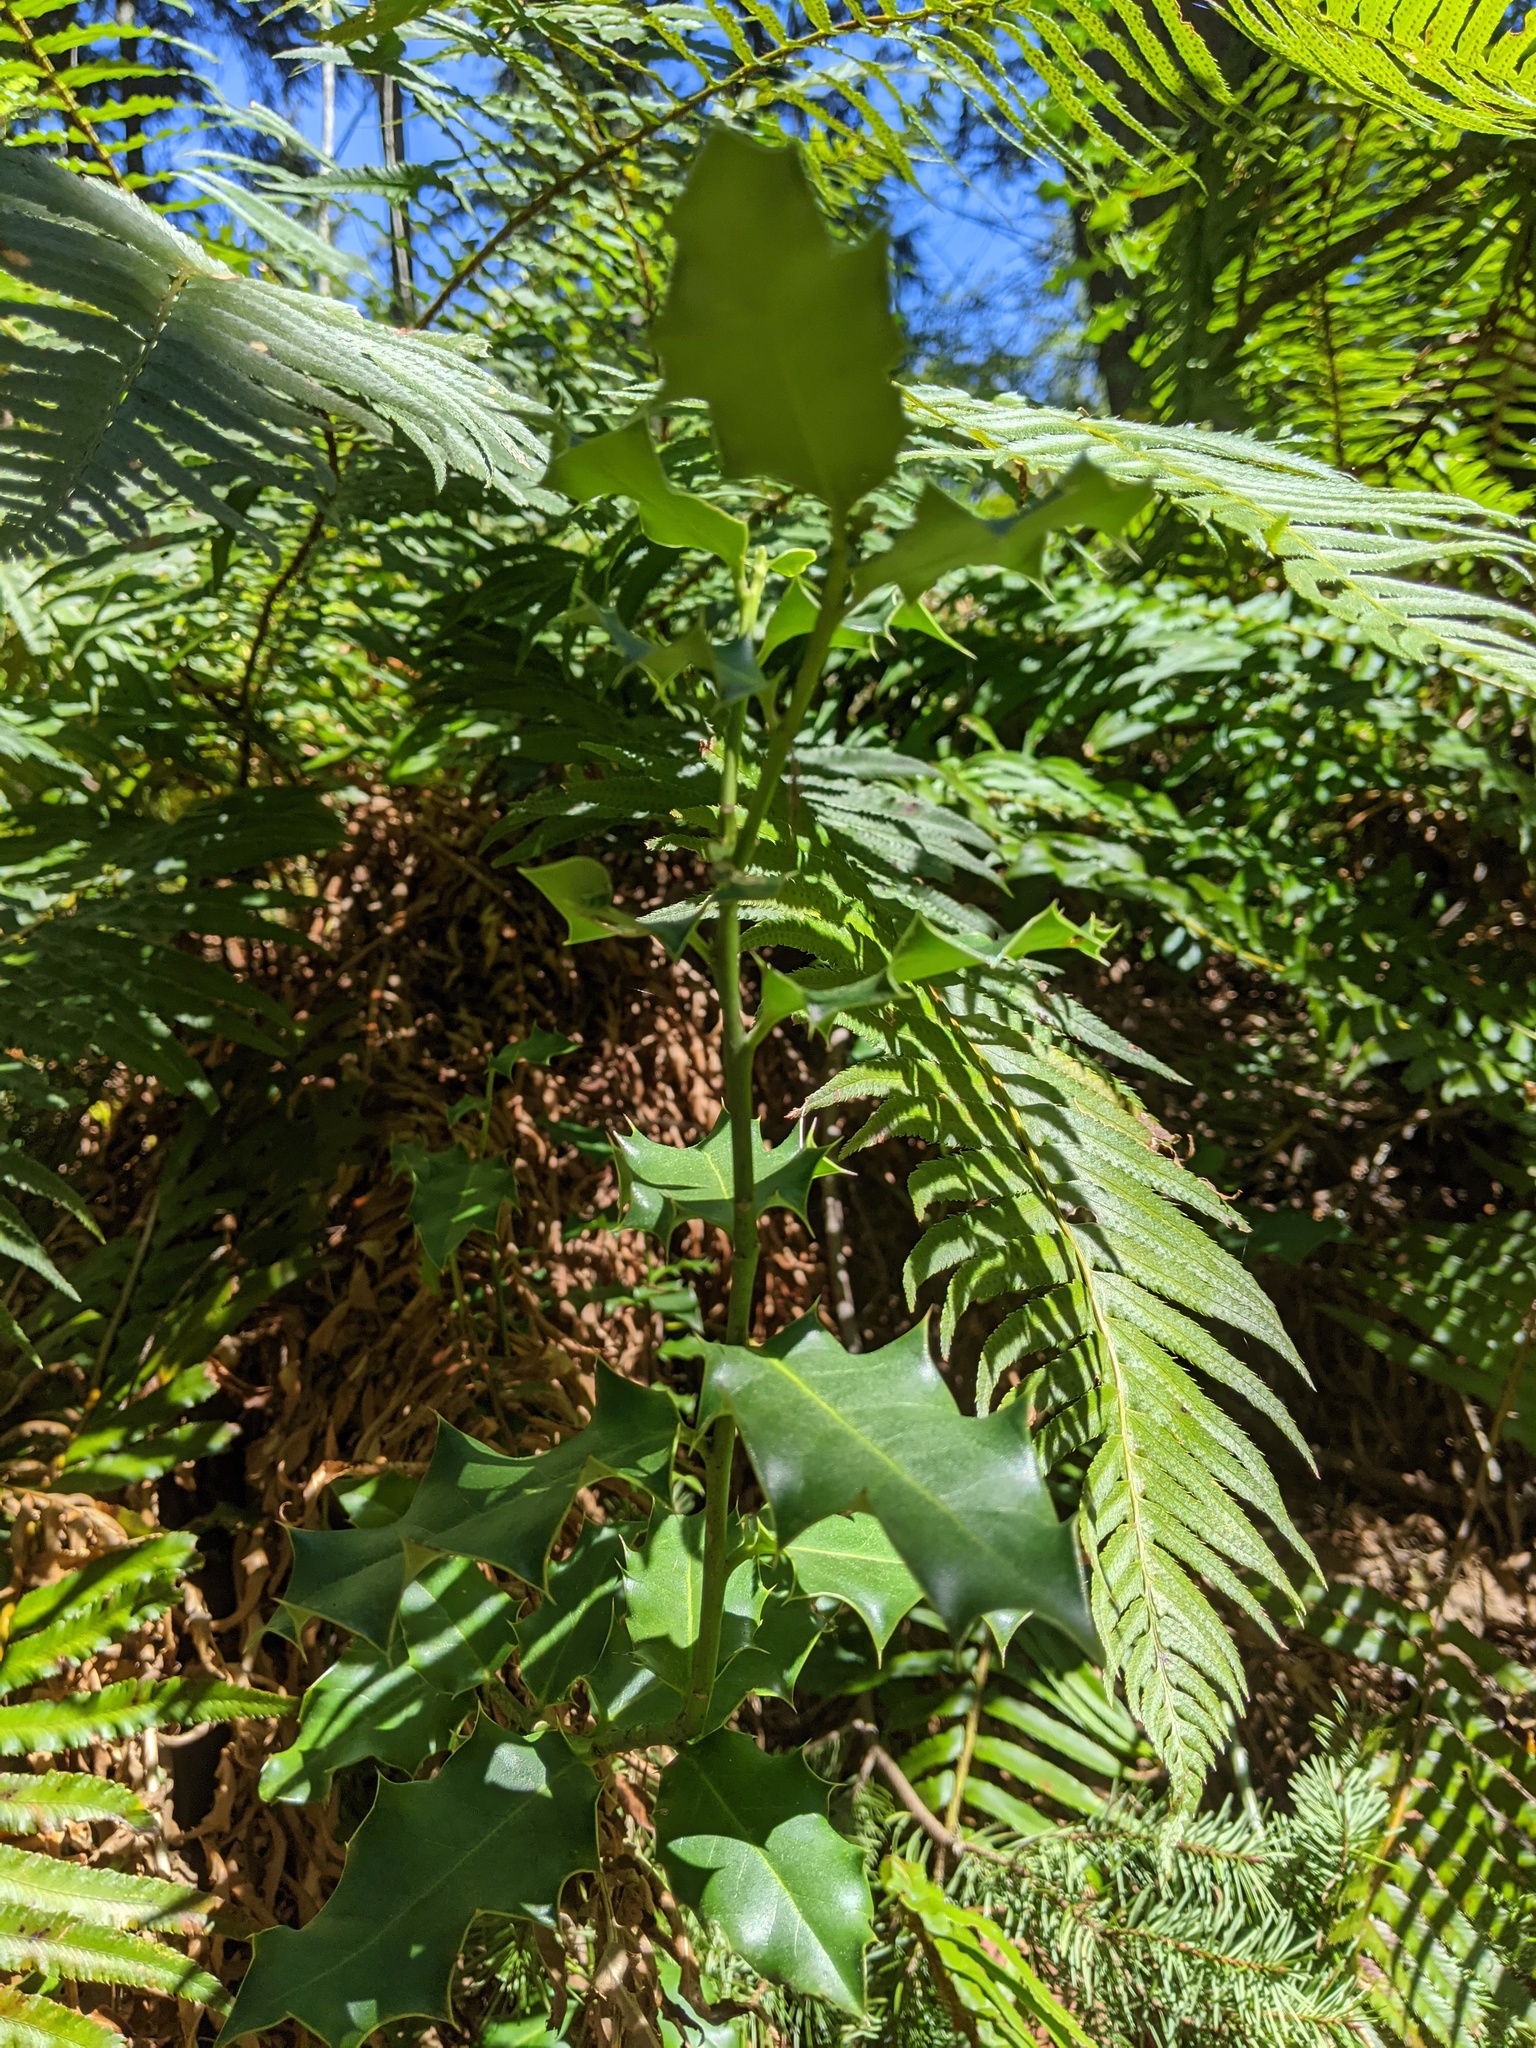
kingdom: Plantae
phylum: Tracheophyta
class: Magnoliopsida
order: Aquifoliales
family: Aquifoliaceae
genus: Ilex
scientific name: Ilex aquifolium
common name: English holly
